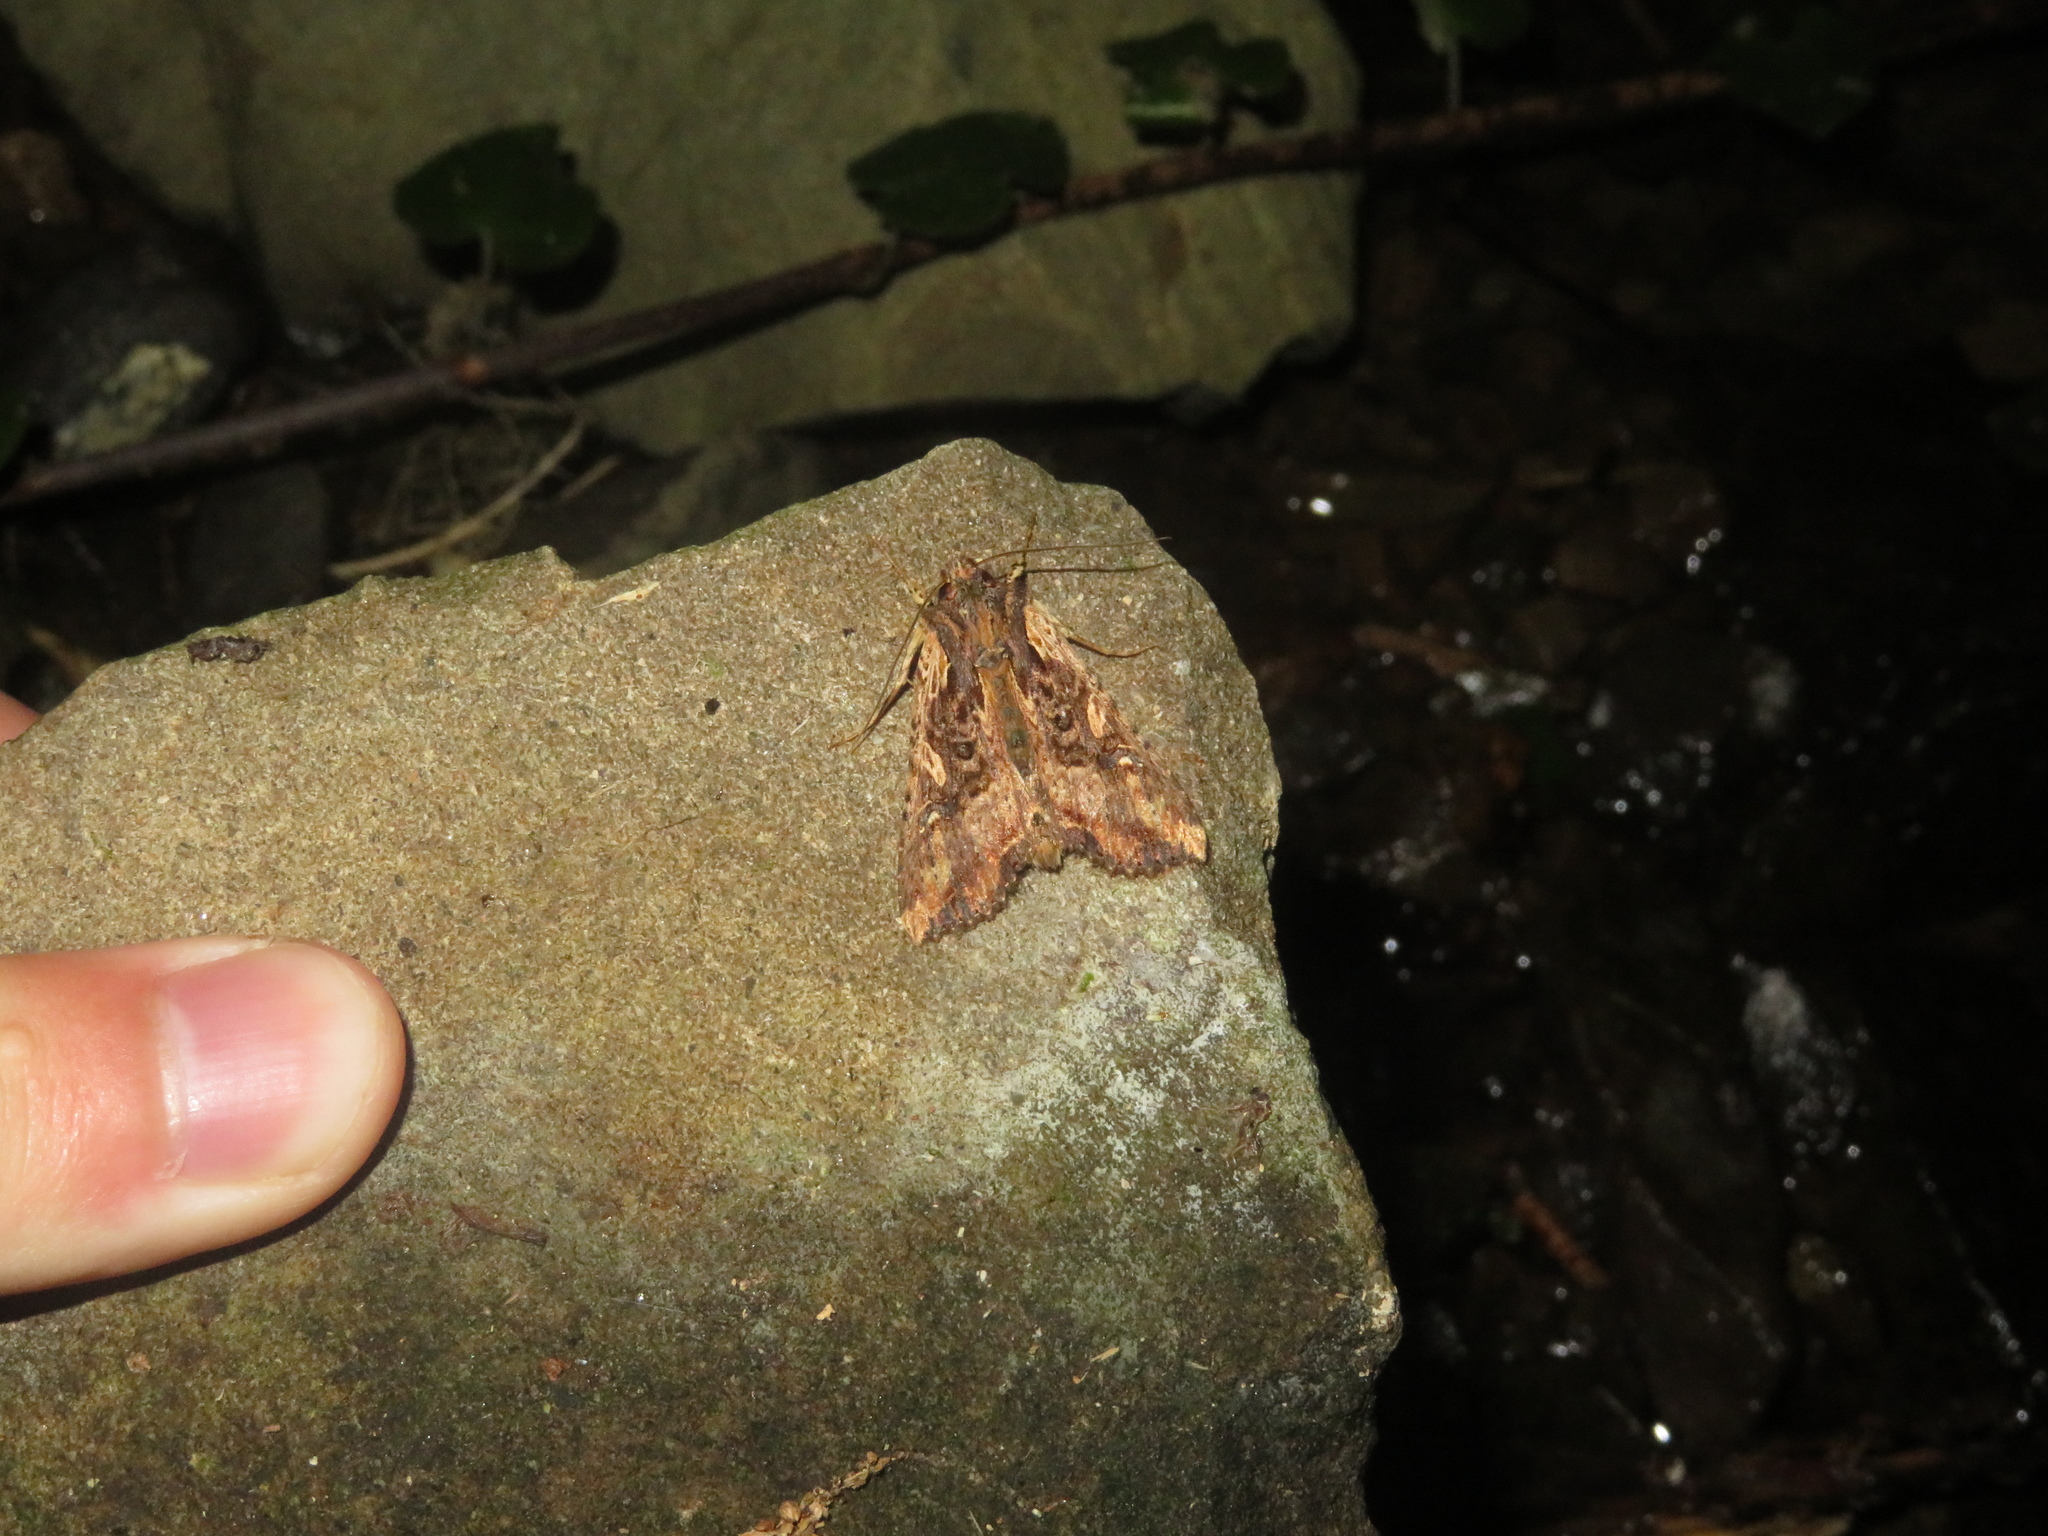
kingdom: Animalia
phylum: Arthropoda
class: Insecta
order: Lepidoptera
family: Noctuidae
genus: Meterana
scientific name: Meterana stipata
